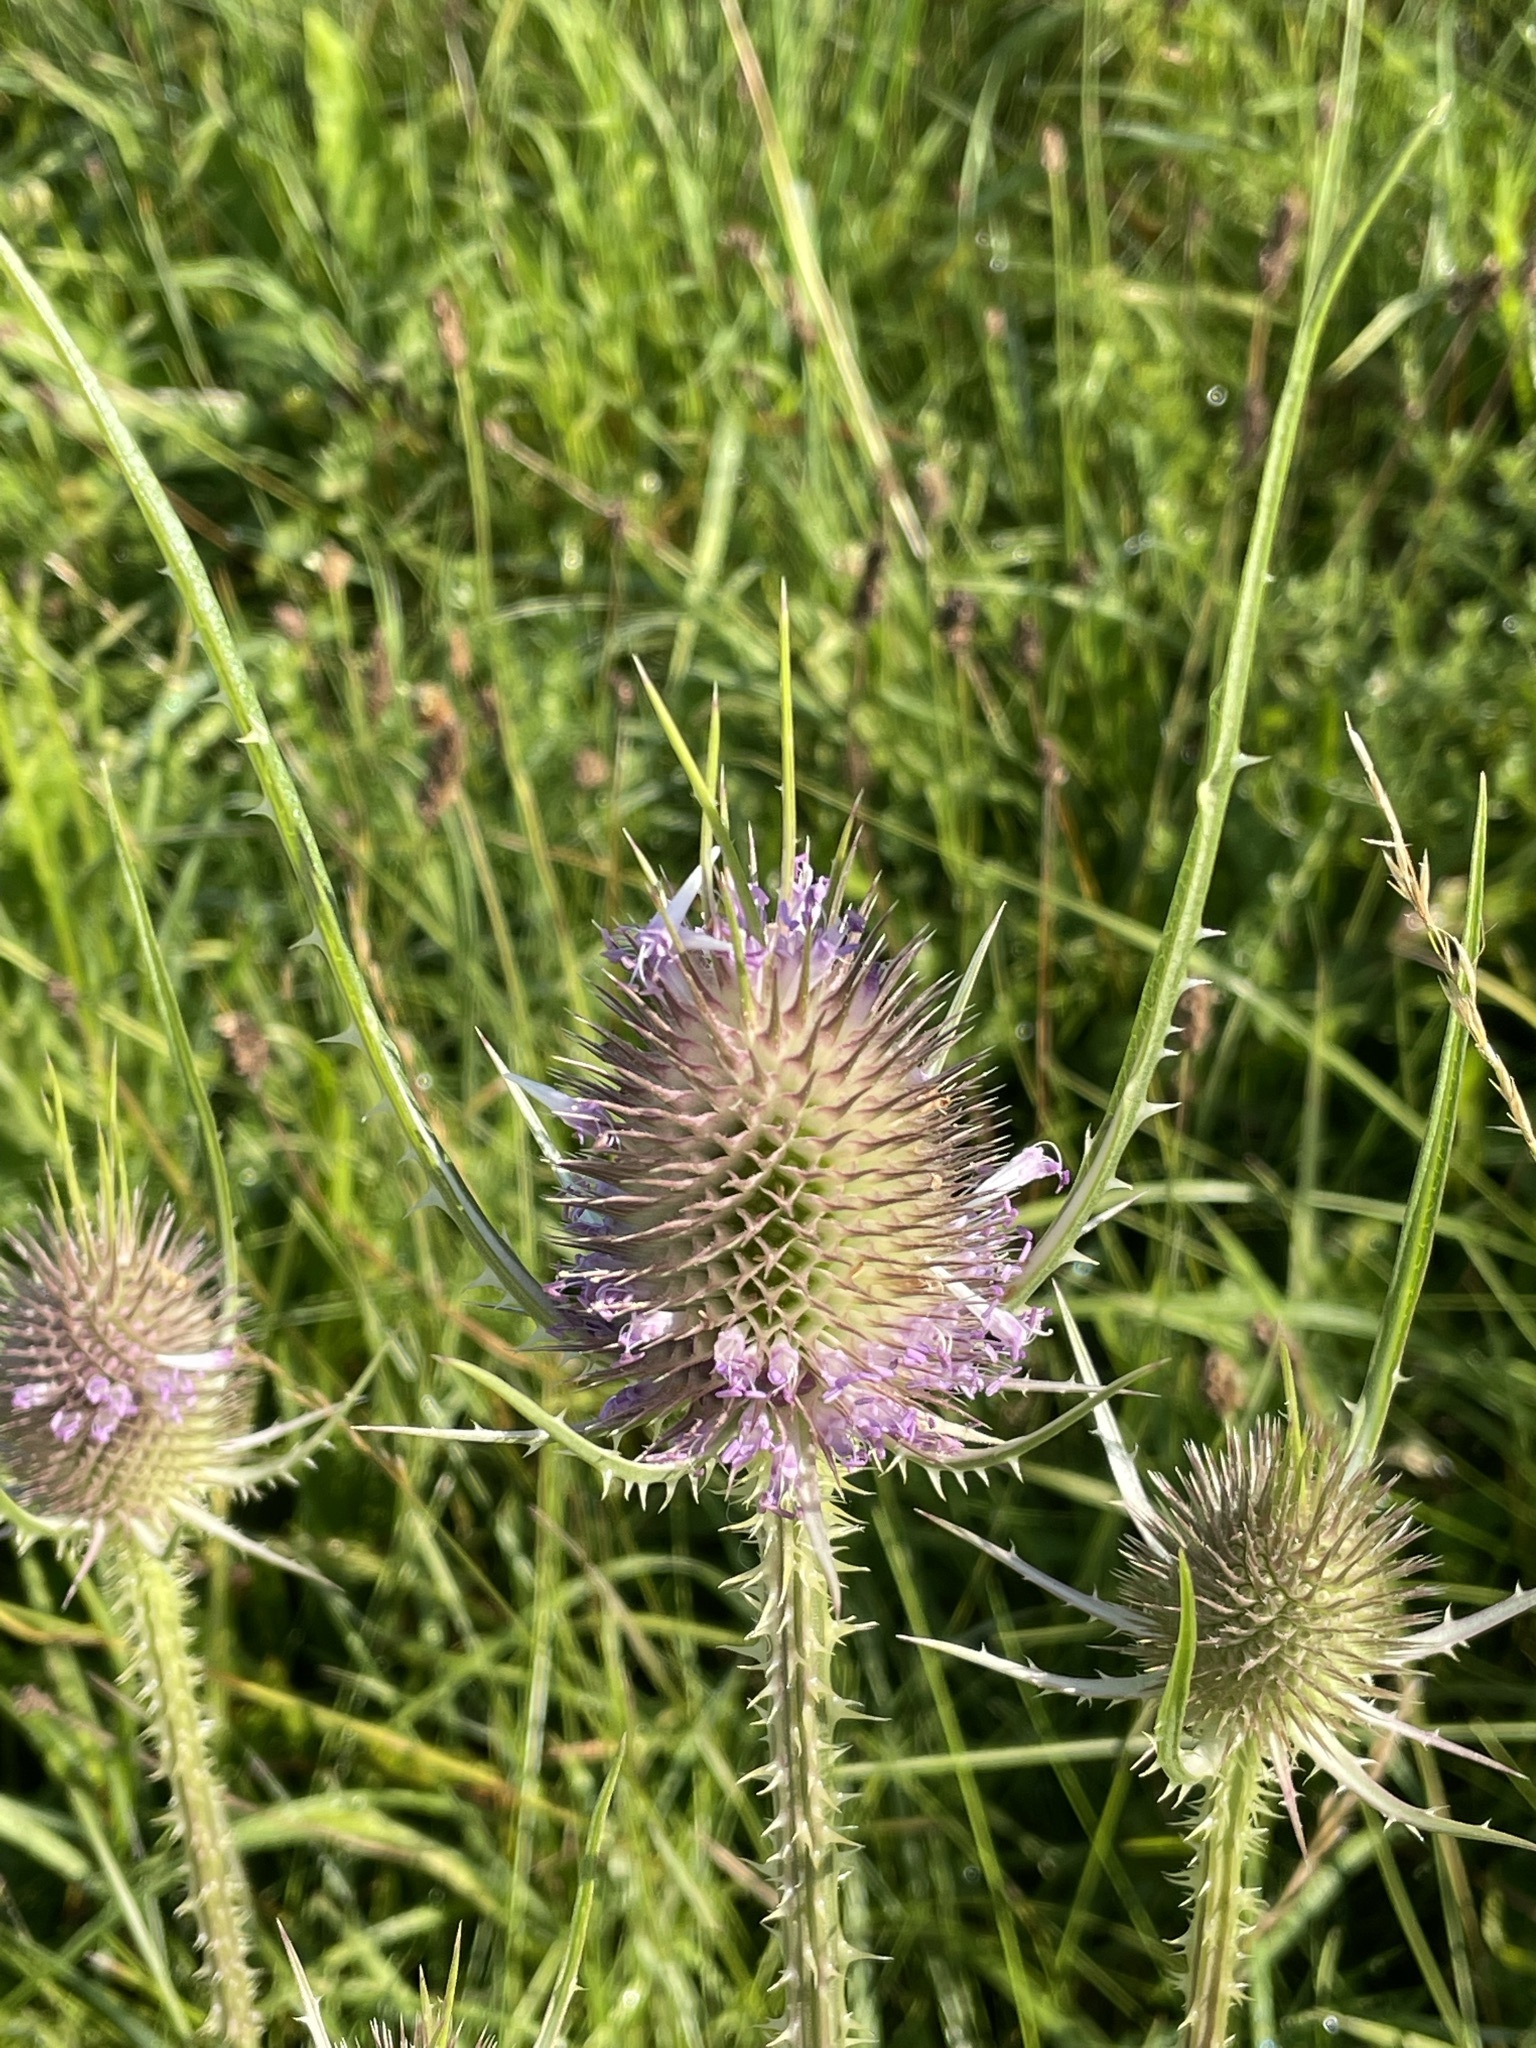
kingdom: Plantae
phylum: Tracheophyta
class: Magnoliopsida
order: Dipsacales
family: Caprifoliaceae
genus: Dipsacus
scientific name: Dipsacus fullonum
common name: Teasel
